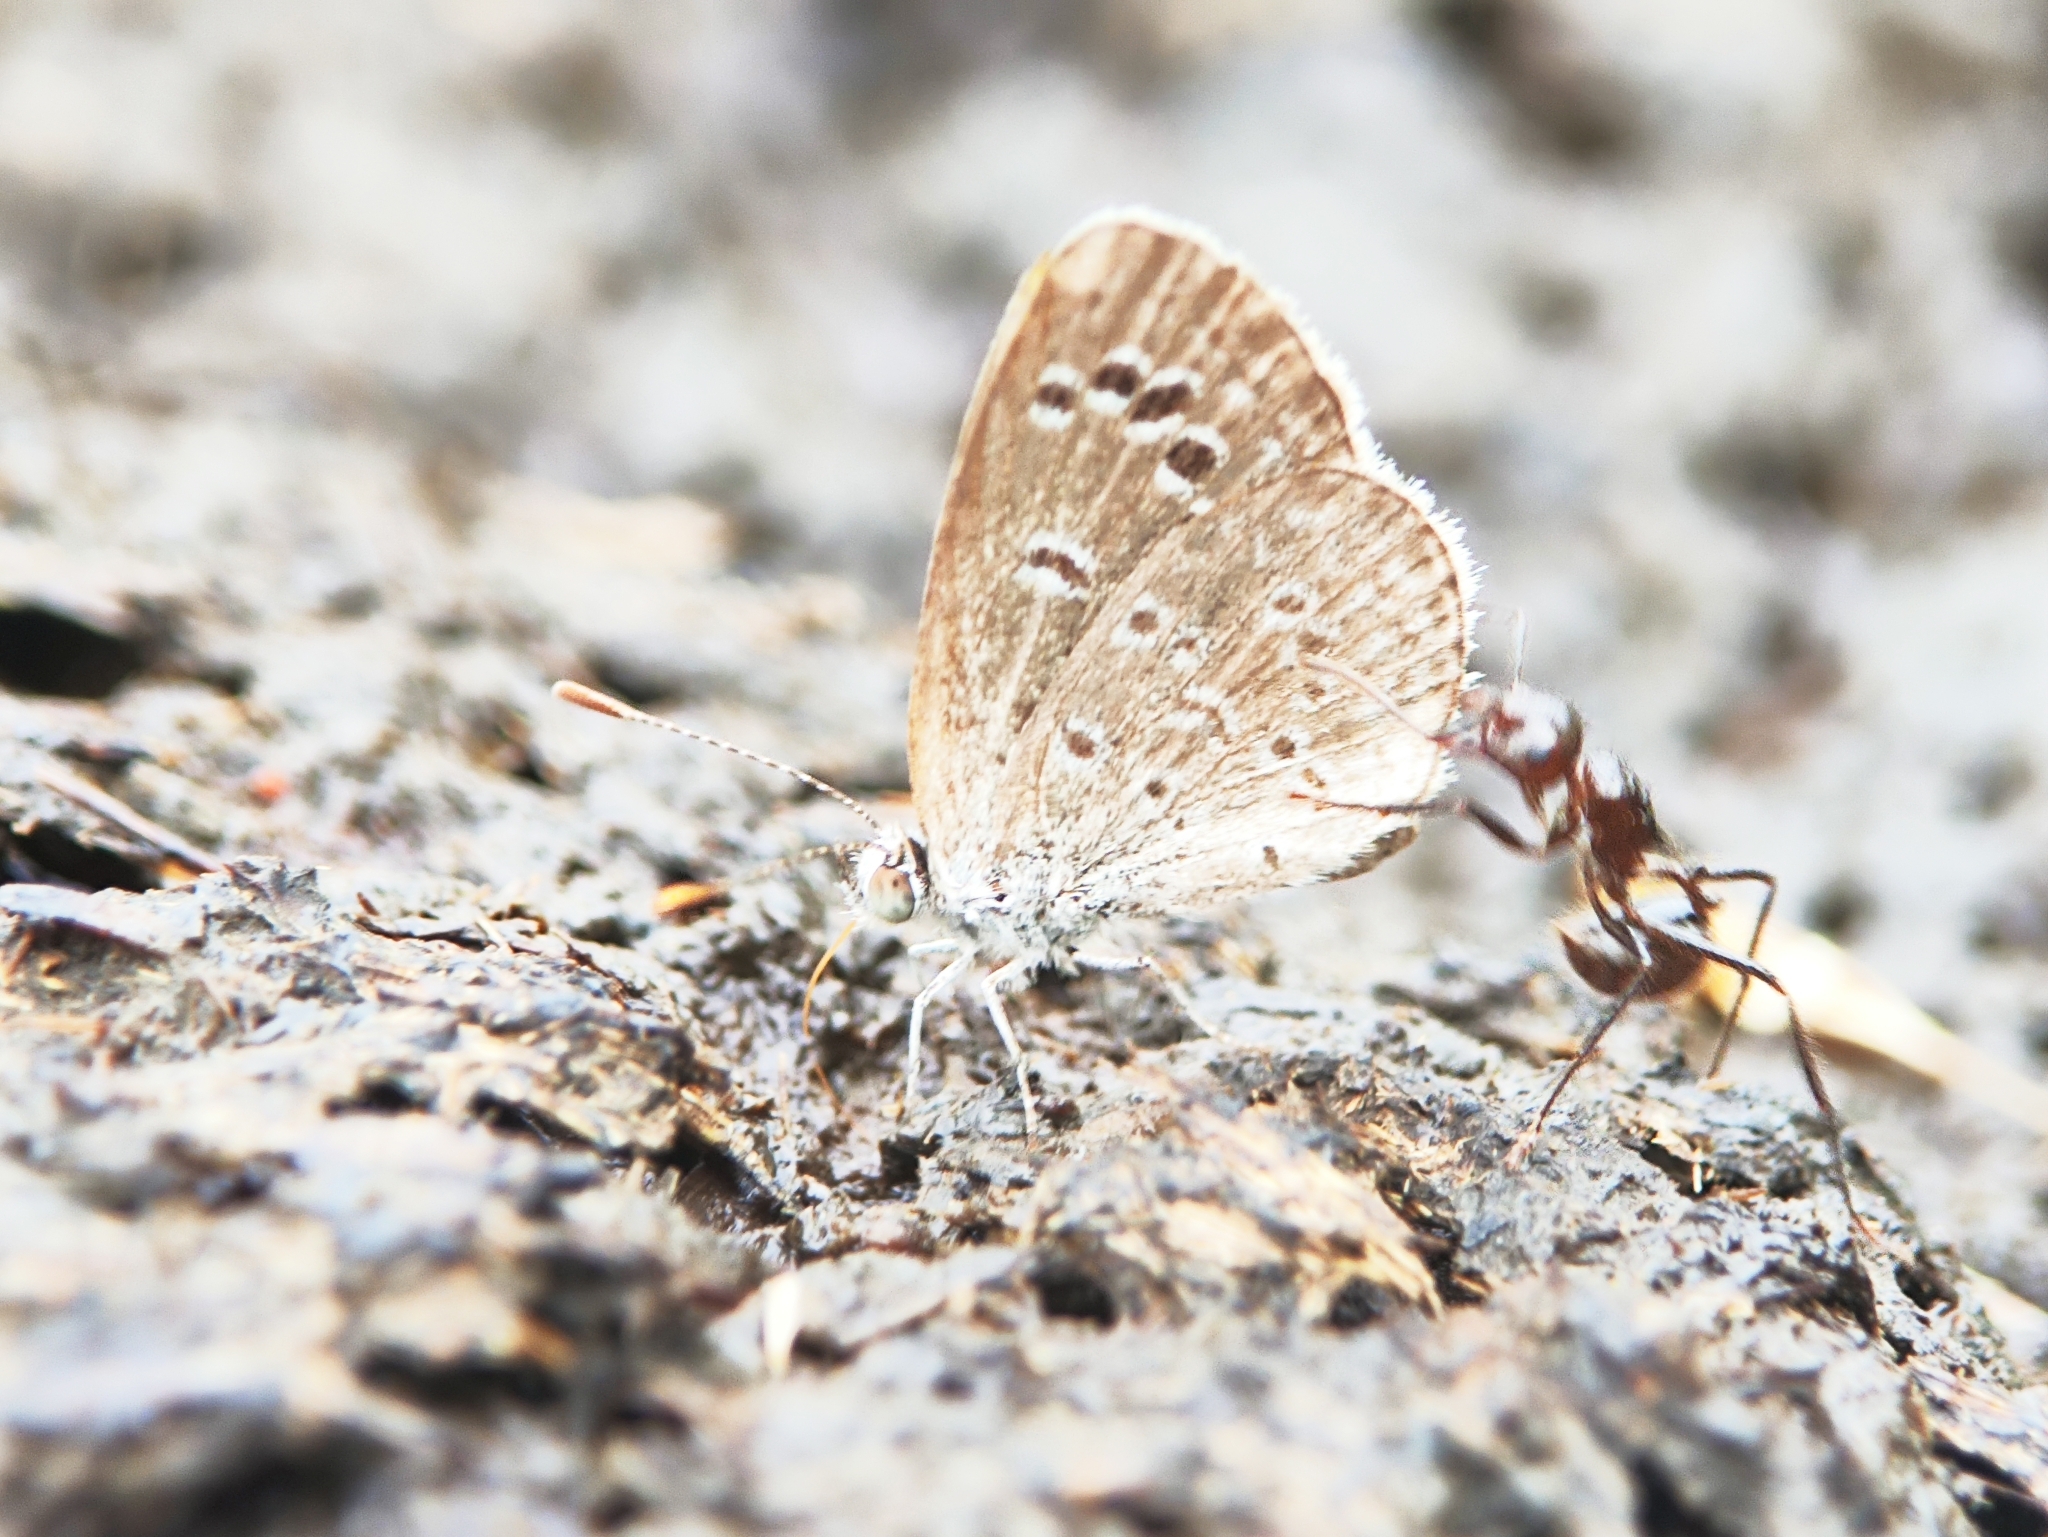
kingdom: Animalia
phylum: Arthropoda
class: Insecta
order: Lepidoptera
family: Lycaenidae
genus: Zizina
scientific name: Zizina otis
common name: Lesser grass blue
